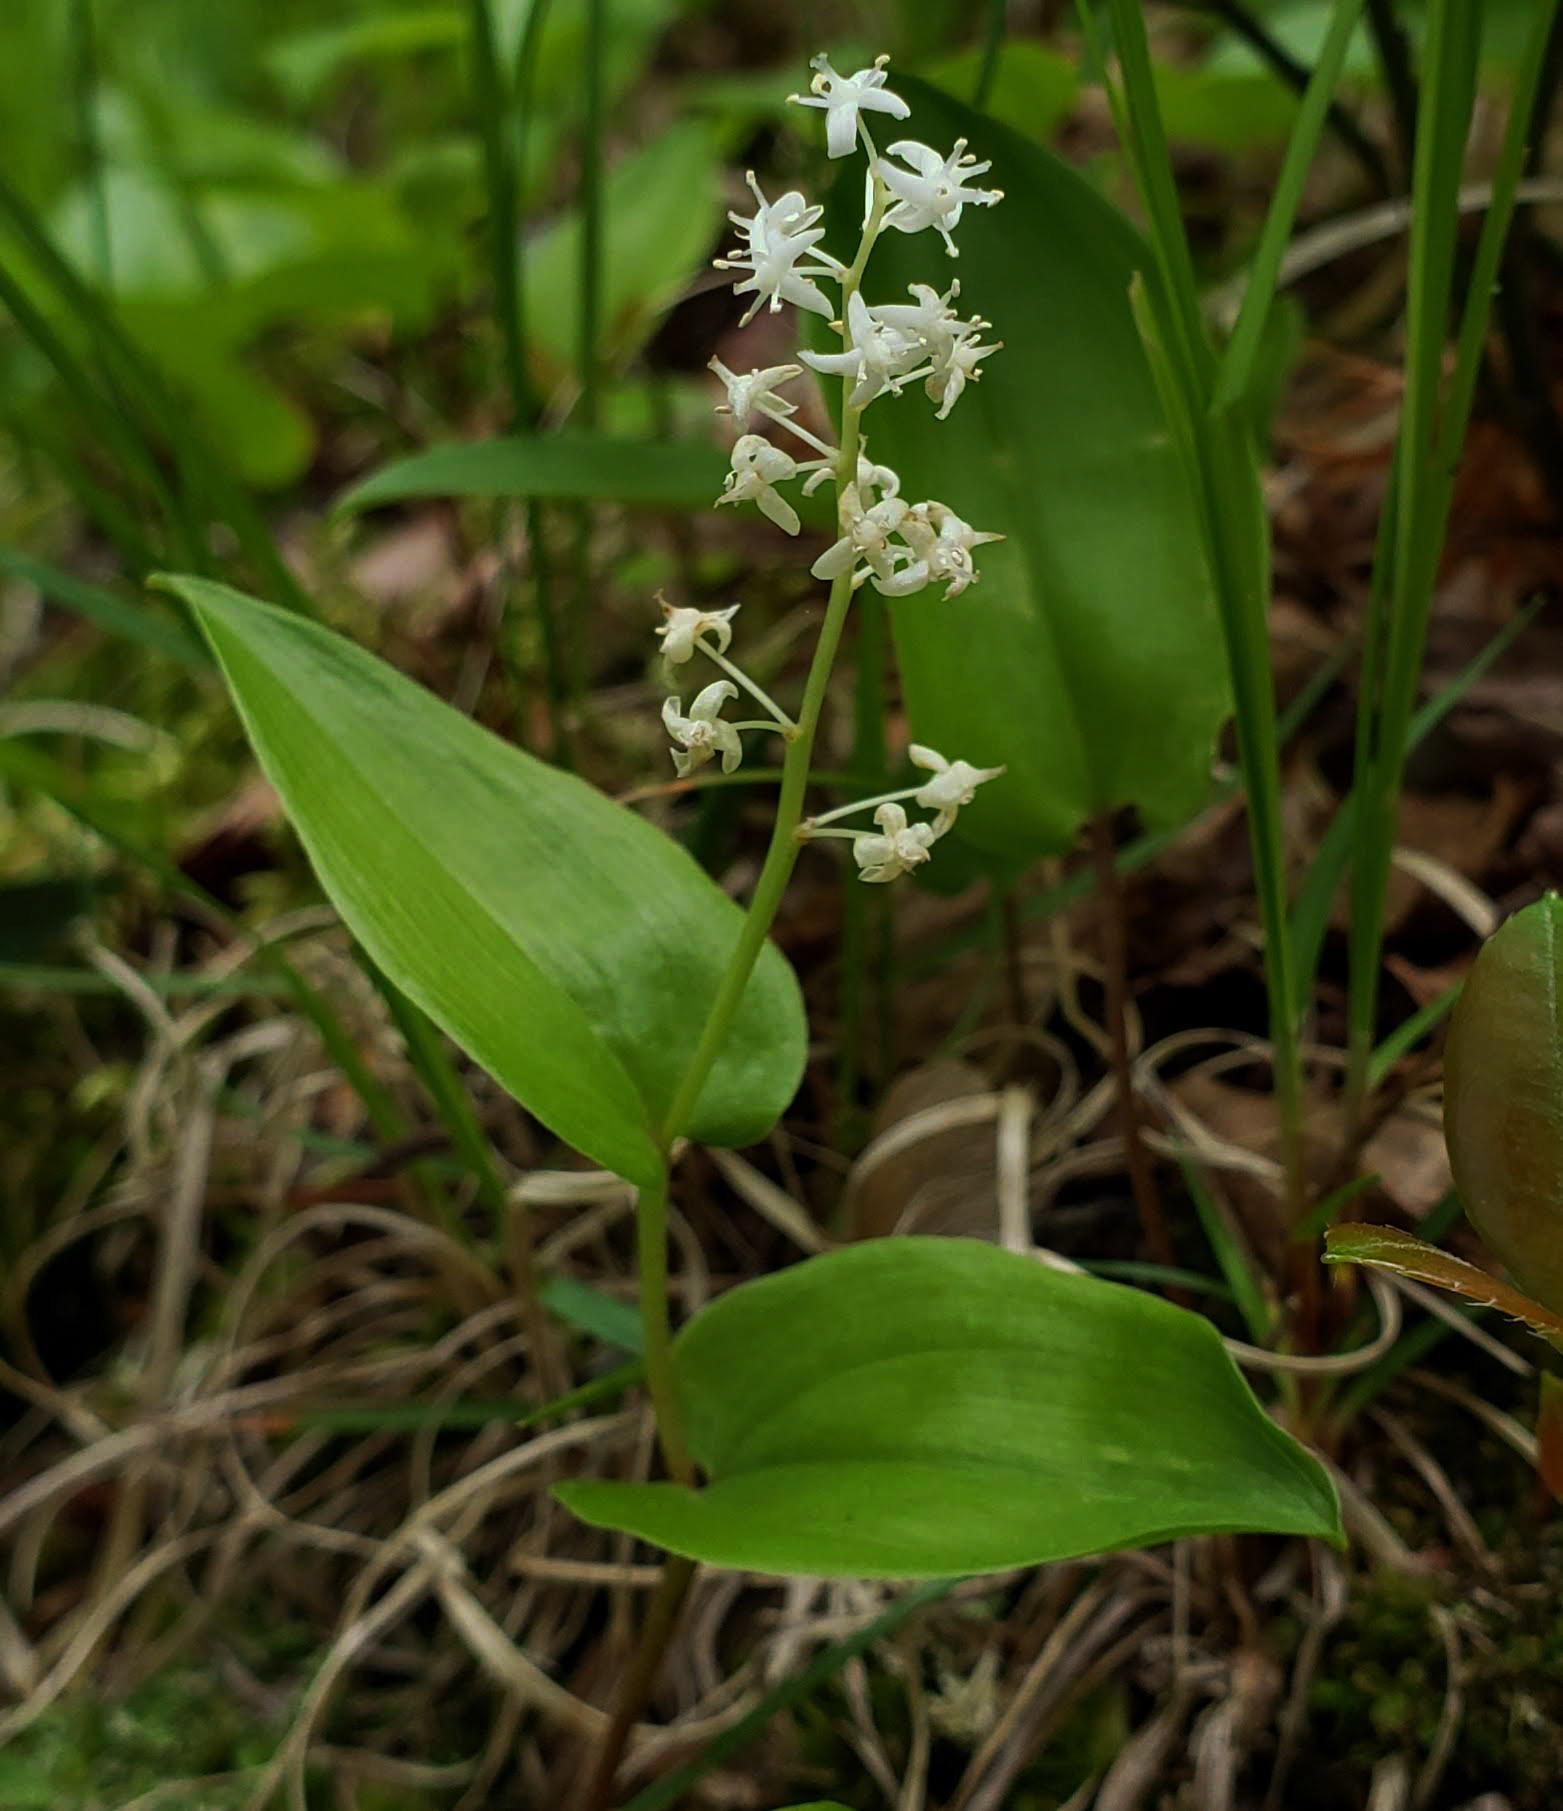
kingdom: Plantae
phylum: Tracheophyta
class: Liliopsida
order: Asparagales
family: Asparagaceae
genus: Maianthemum
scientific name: Maianthemum canadense
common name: False lily-of-the-valley
